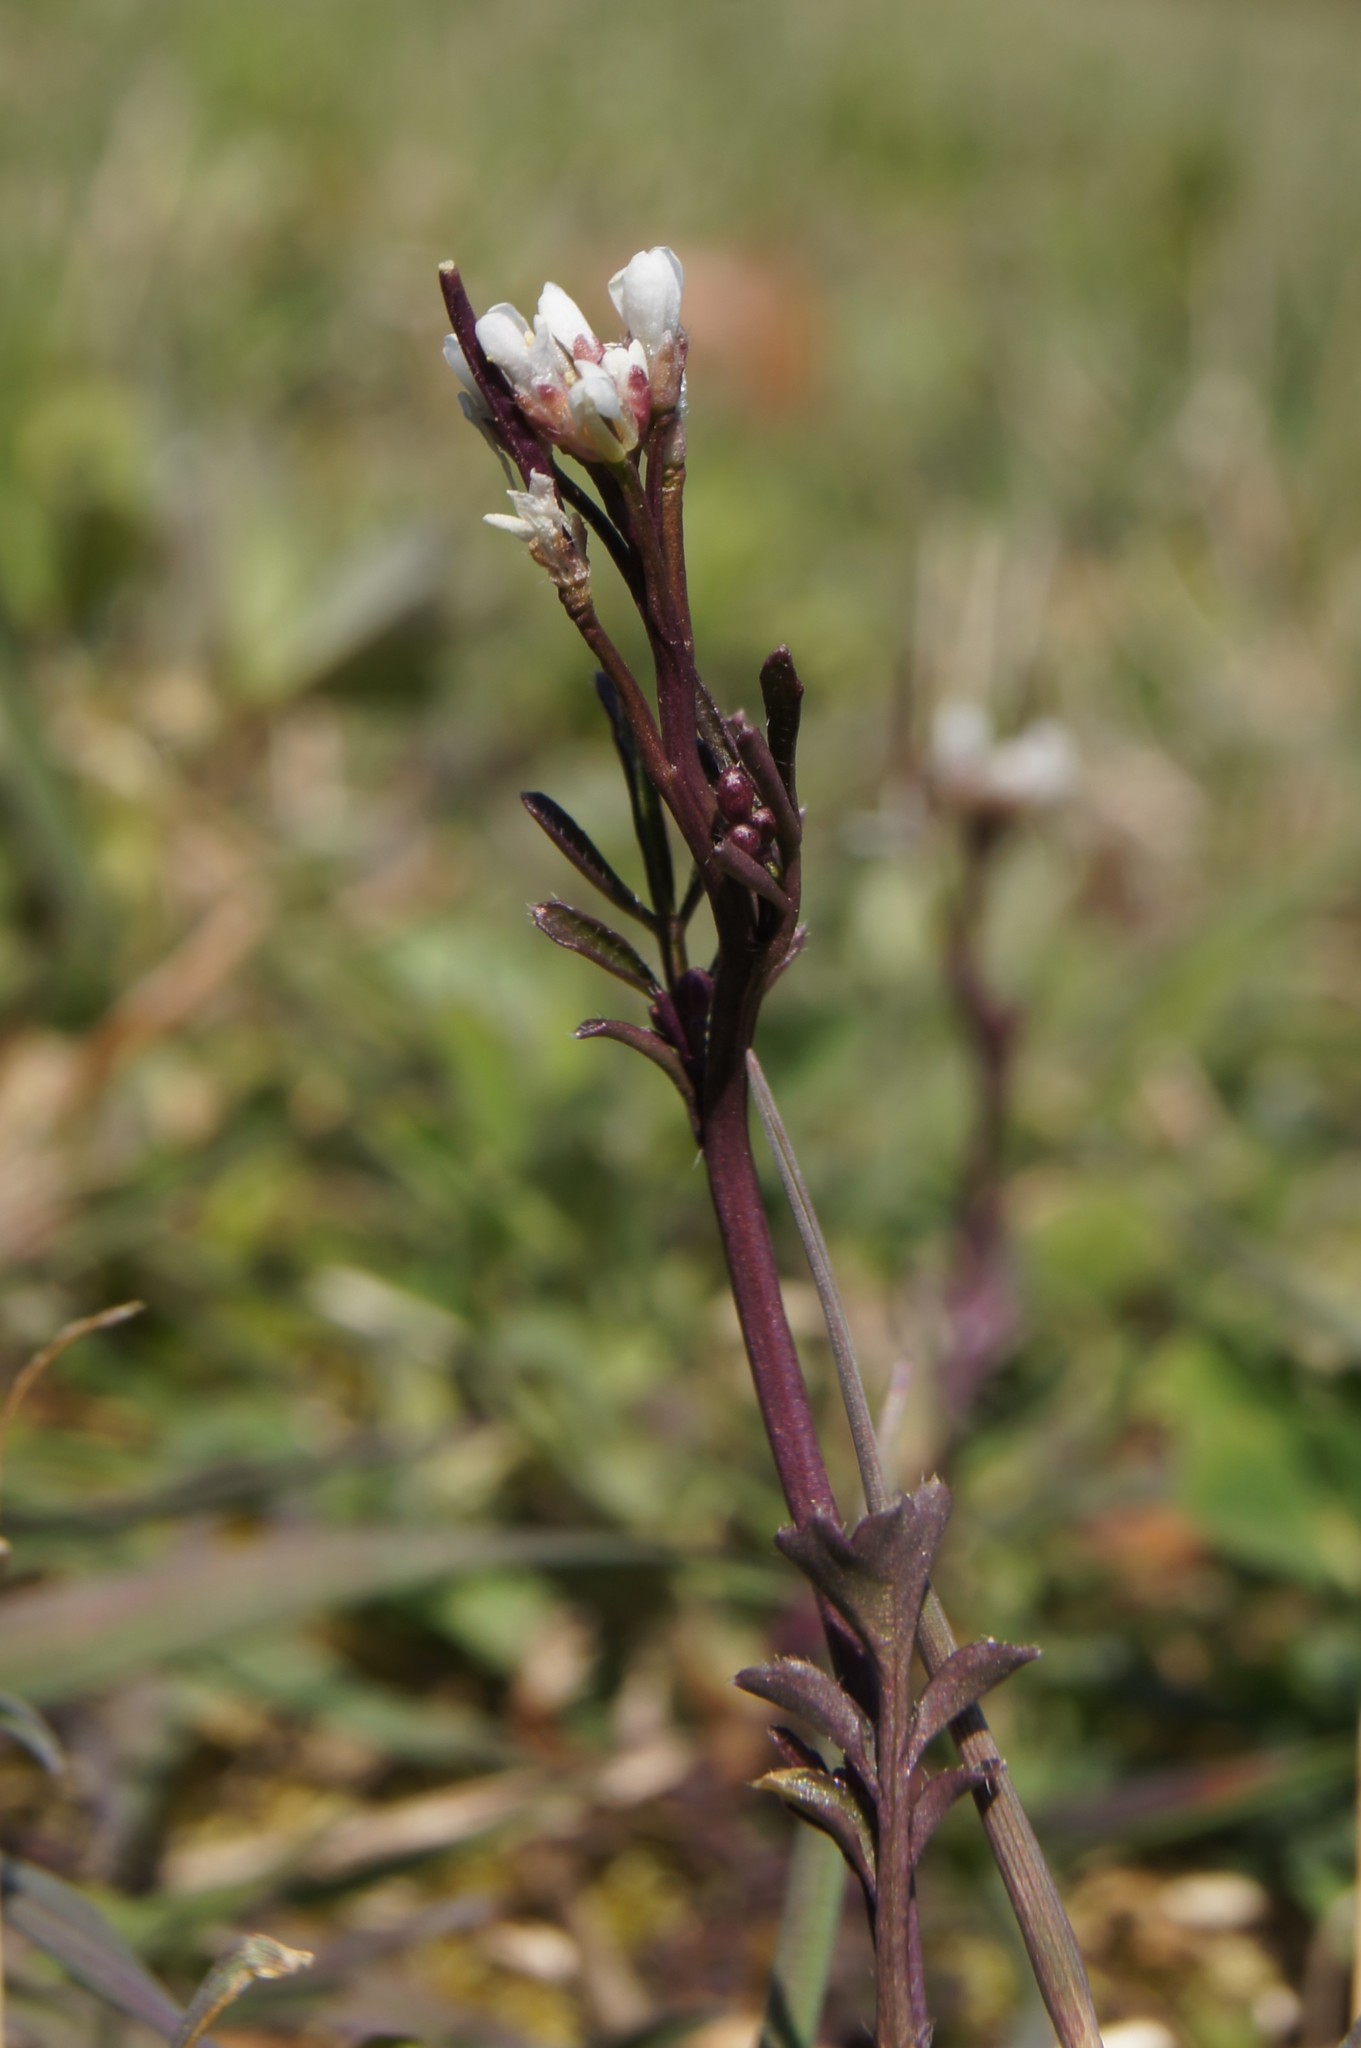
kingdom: Plantae
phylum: Tracheophyta
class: Magnoliopsida
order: Brassicales
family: Brassicaceae
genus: Cardamine
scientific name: Cardamine hirsuta
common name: Hairy bittercress
